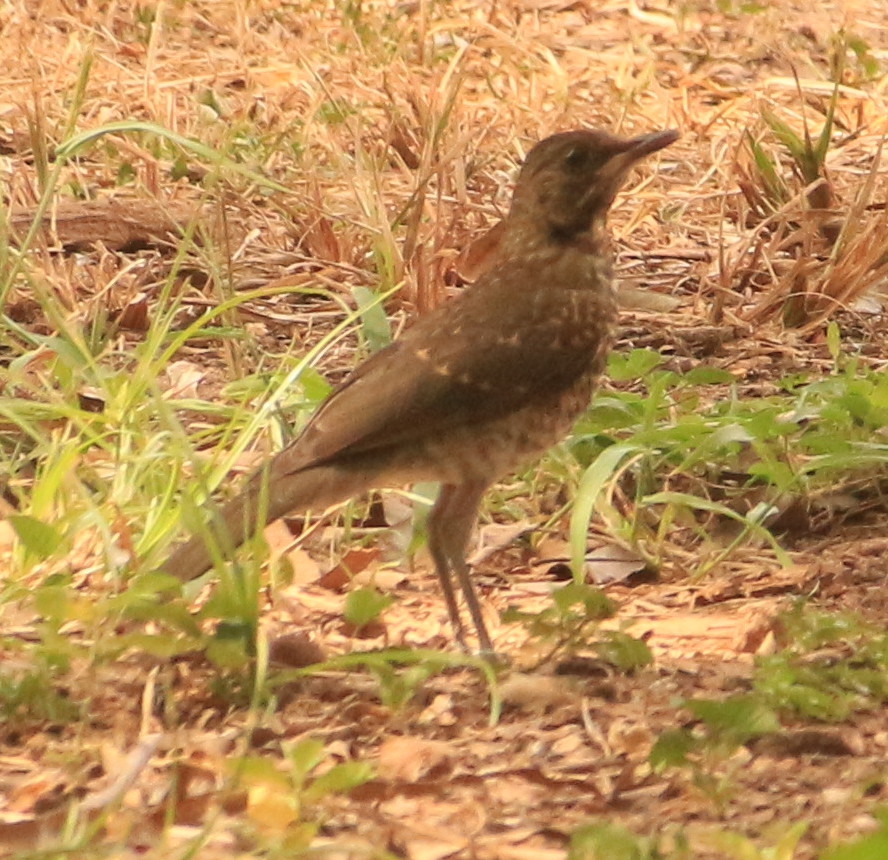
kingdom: Animalia
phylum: Chordata
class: Aves
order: Passeriformes
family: Turdidae
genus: Turdus
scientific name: Turdus amaurochalinus
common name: Creamy-bellied thrush
